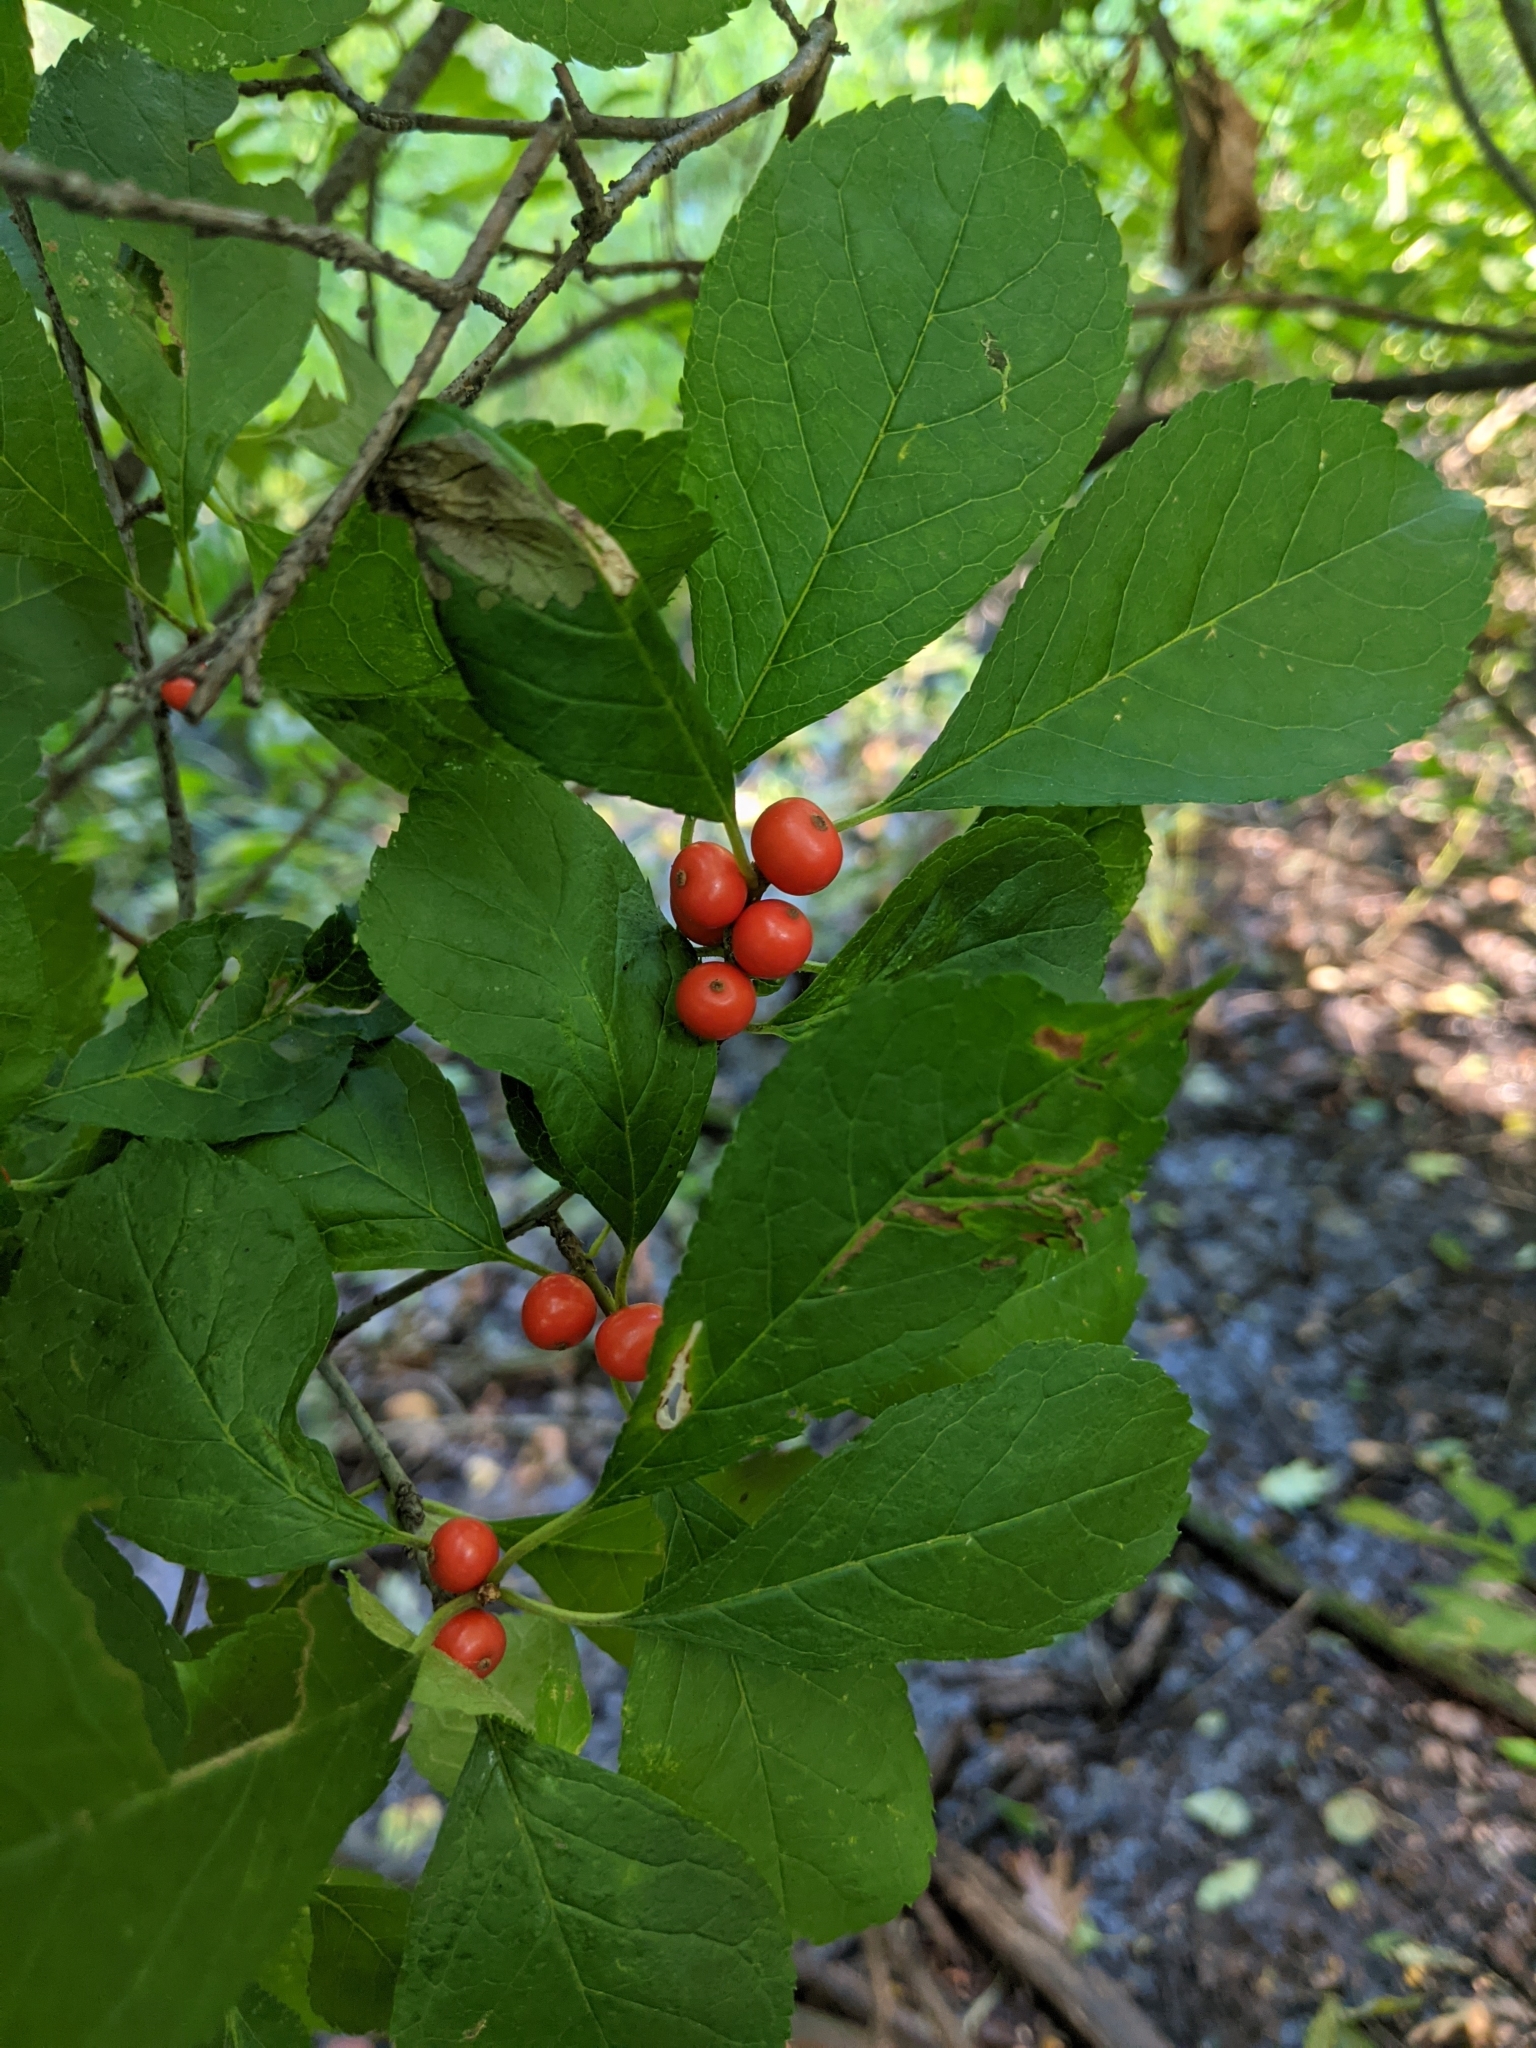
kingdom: Plantae
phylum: Tracheophyta
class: Magnoliopsida
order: Aquifoliales
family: Aquifoliaceae
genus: Ilex
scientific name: Ilex verticillata
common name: Virginia winterberry
